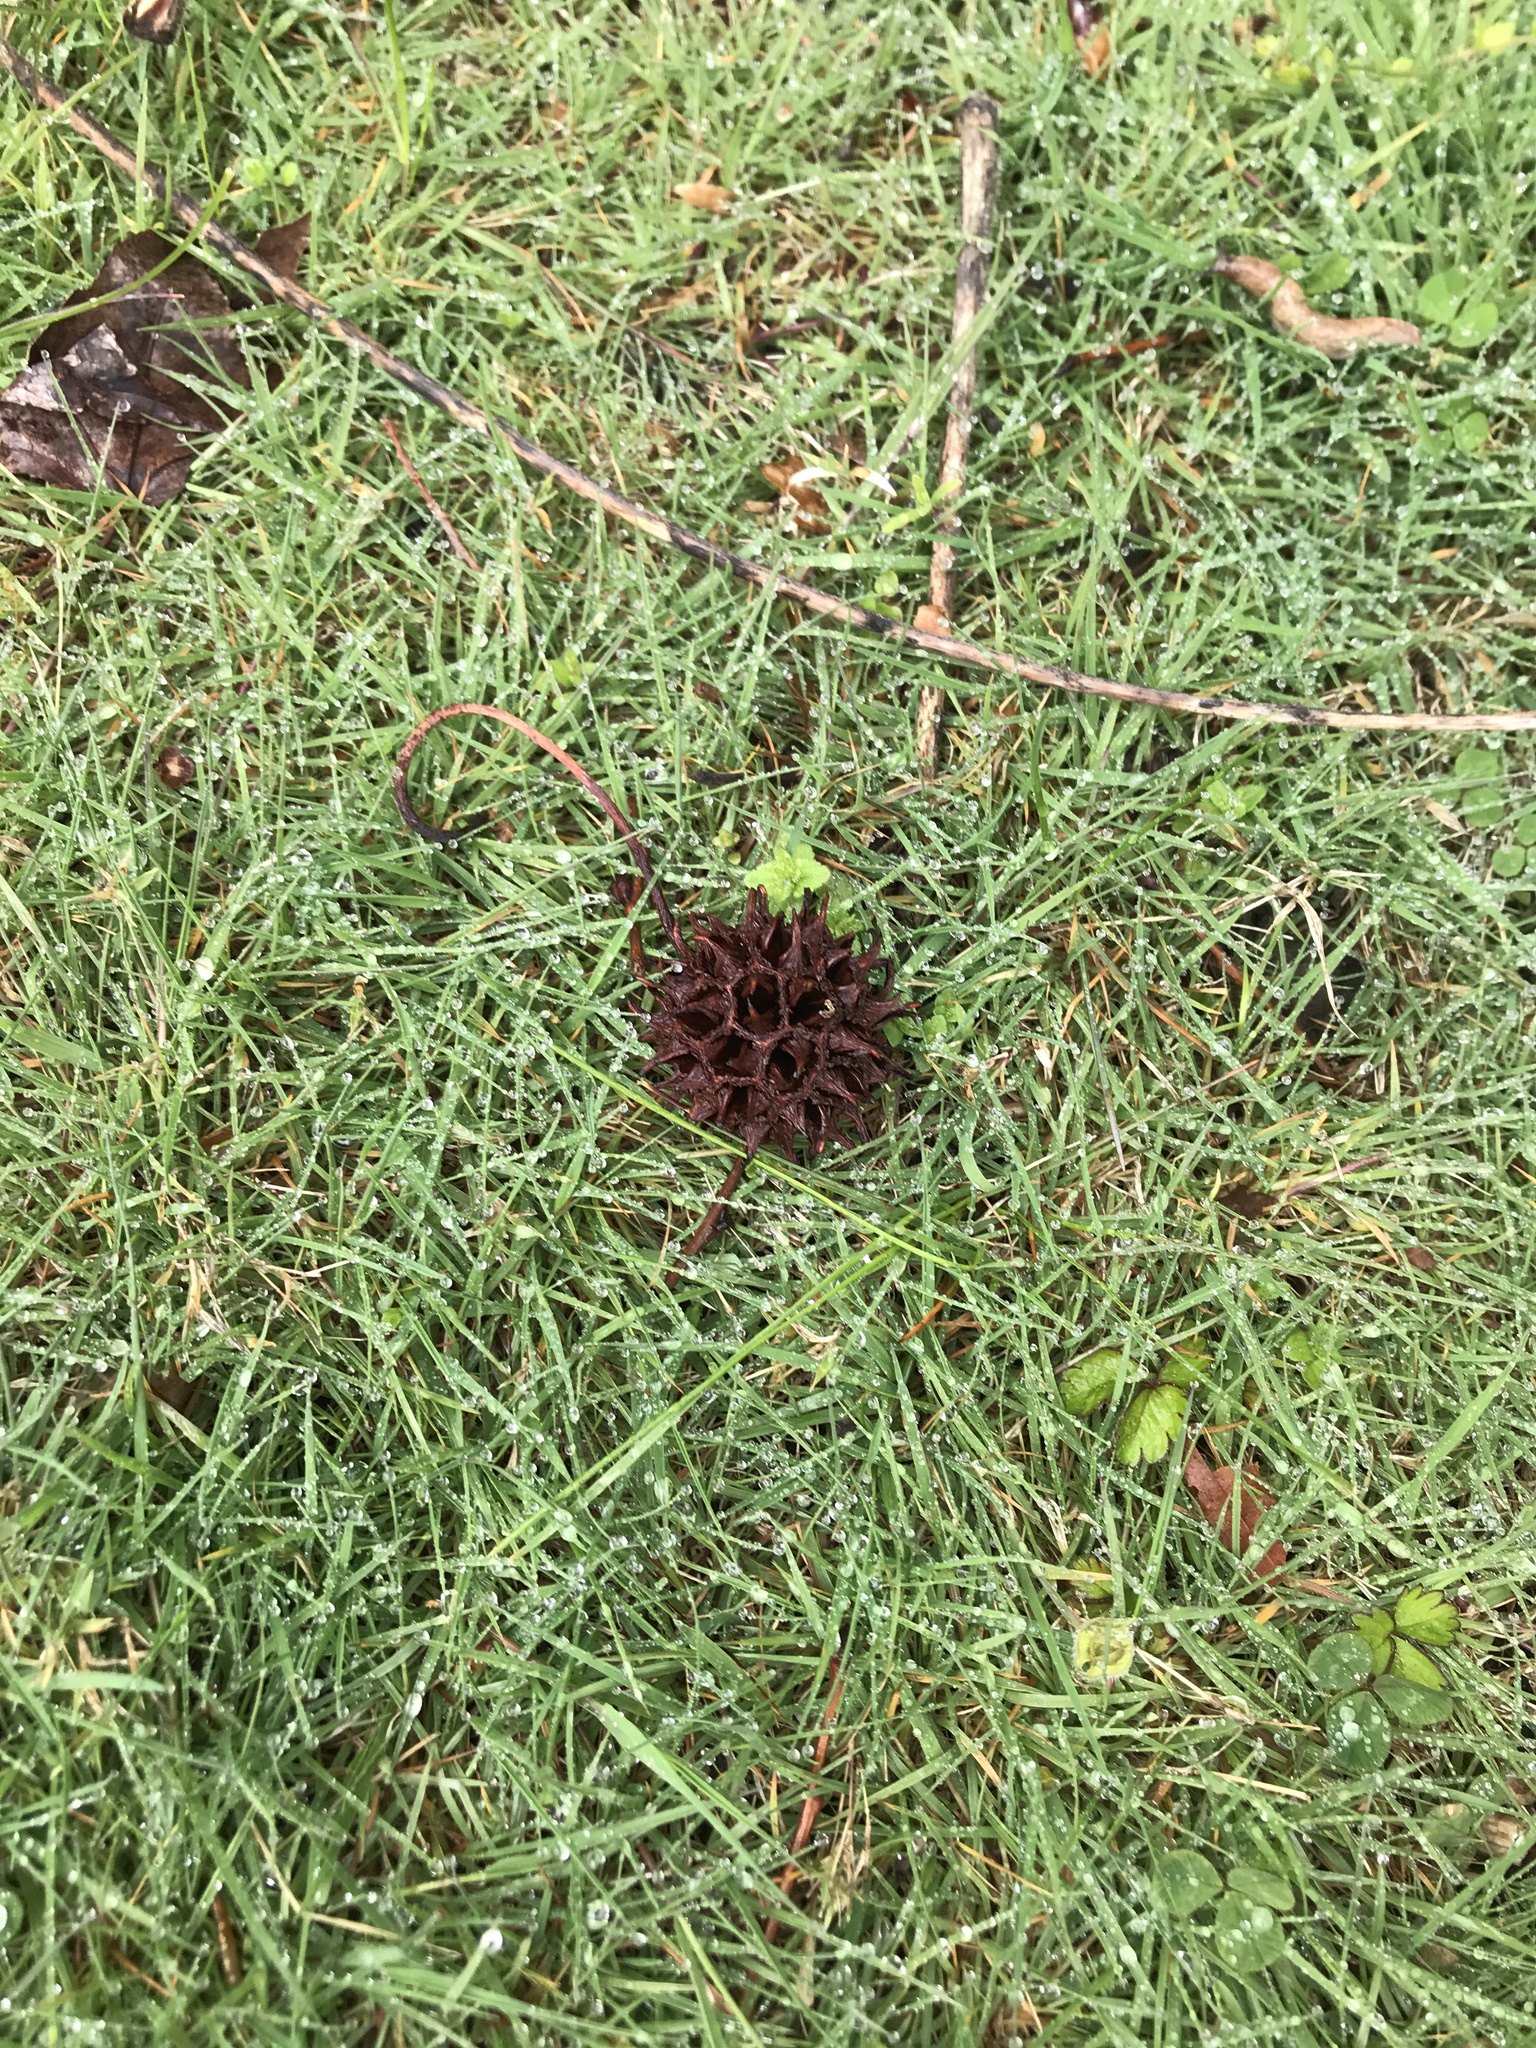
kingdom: Plantae
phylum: Tracheophyta
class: Magnoliopsida
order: Saxifragales
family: Altingiaceae
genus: Liquidambar
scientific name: Liquidambar styraciflua
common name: Sweet gum
